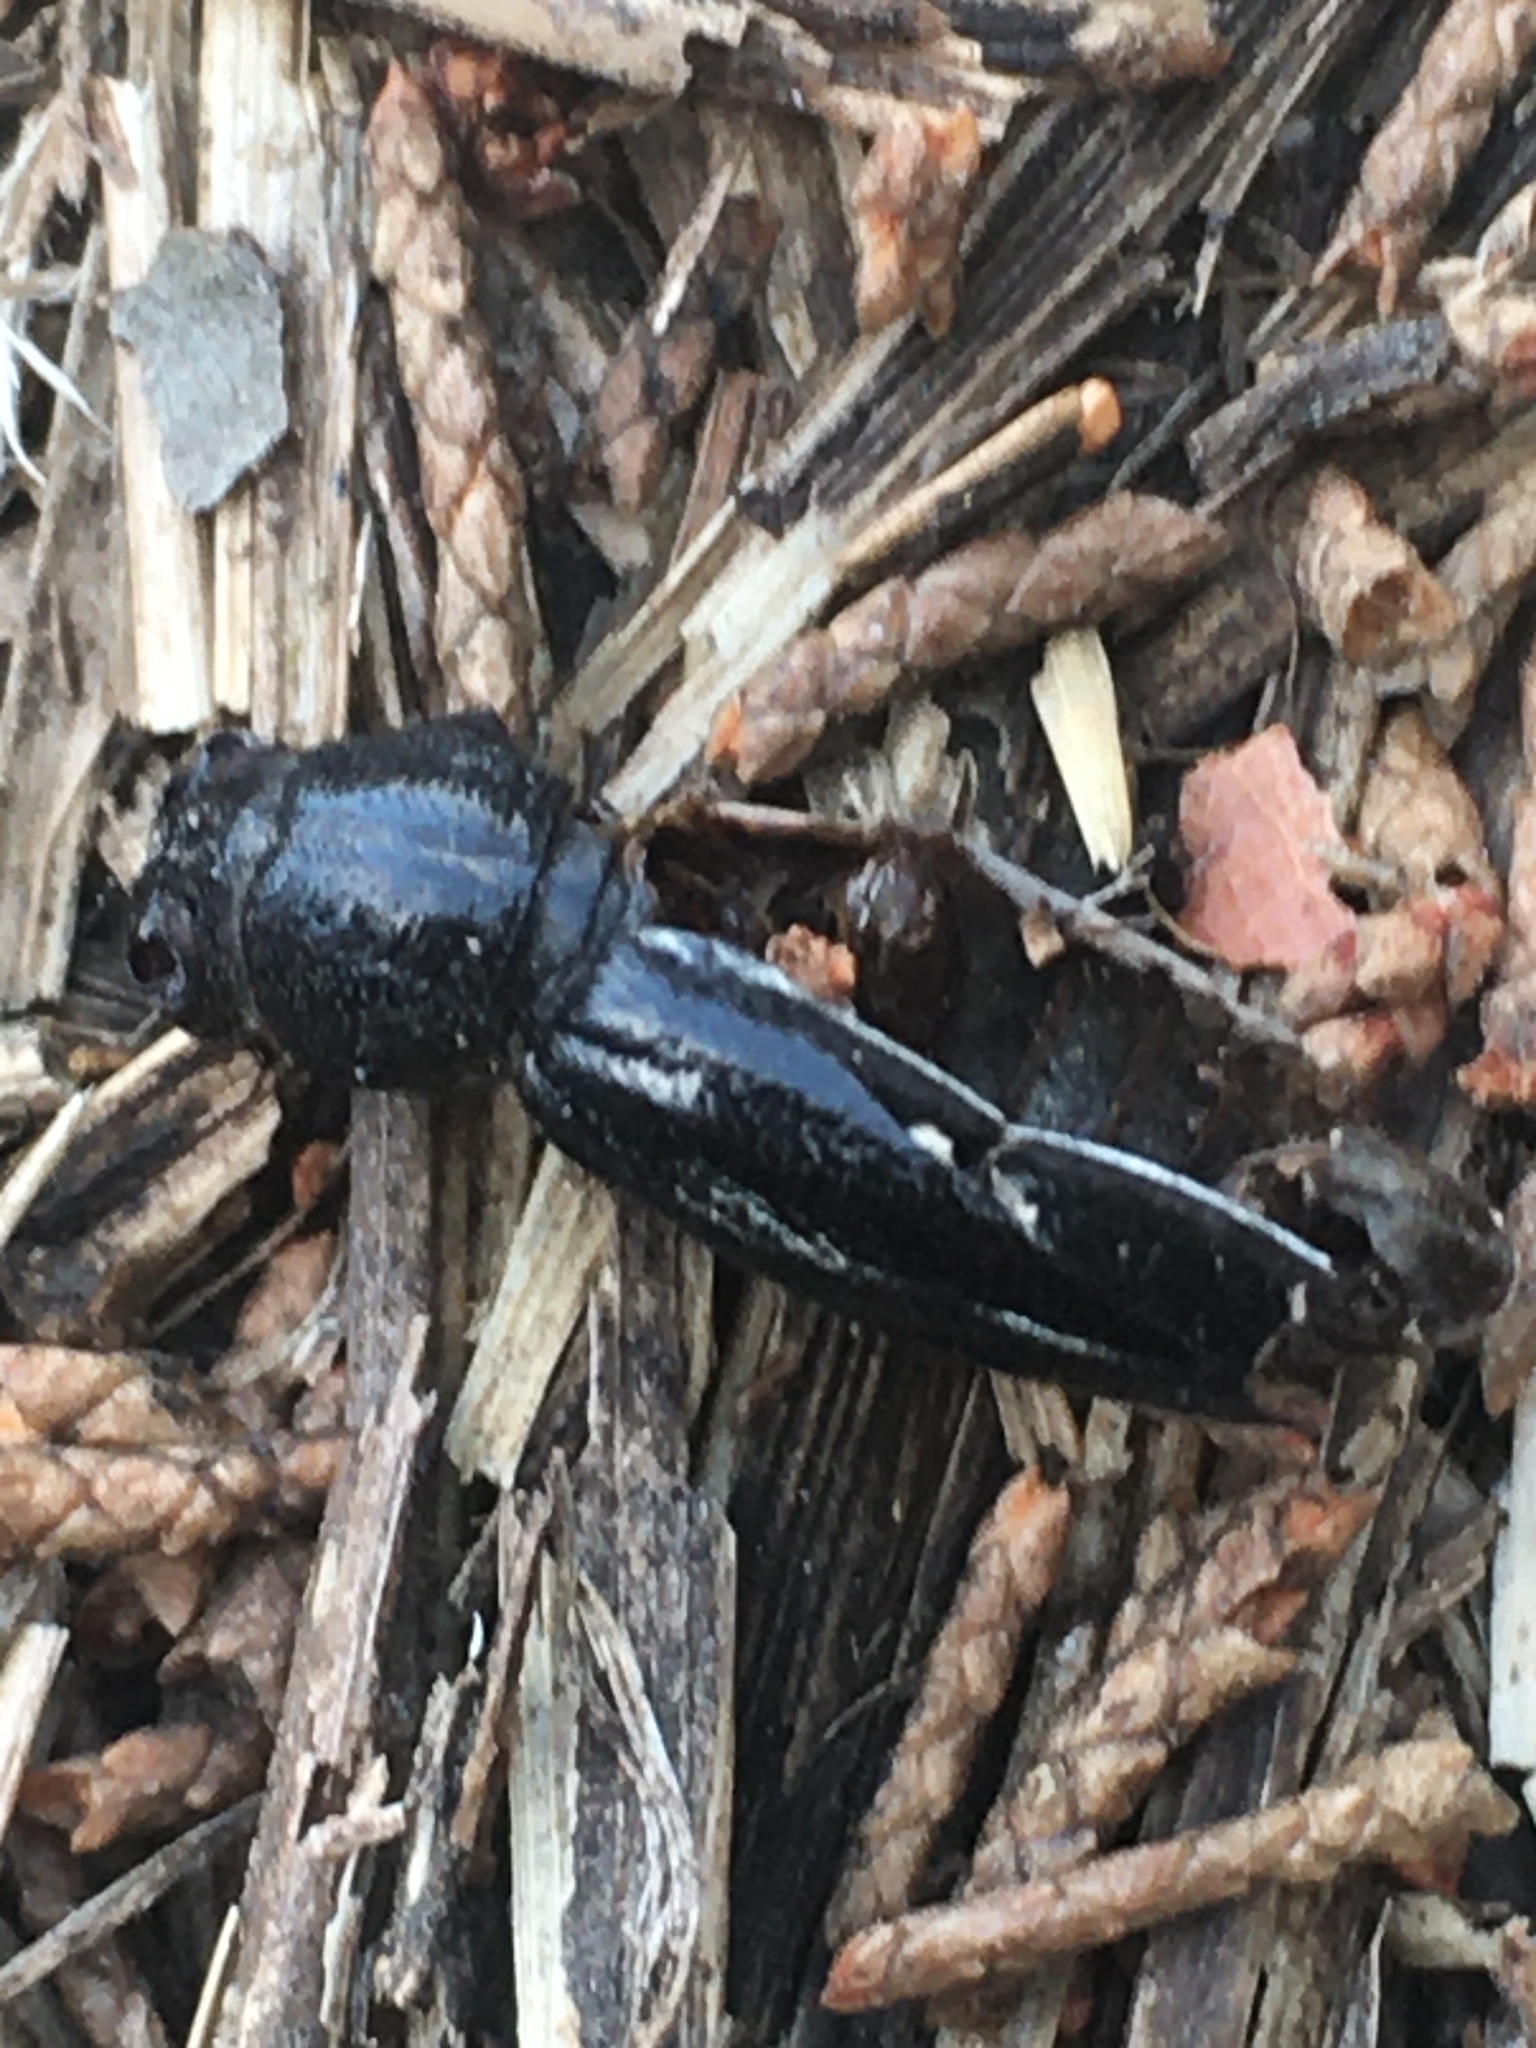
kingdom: Animalia
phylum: Arthropoda
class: Insecta
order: Coleoptera
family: Cerambycidae
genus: Dorcadion
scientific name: Dorcadion cinerarium
